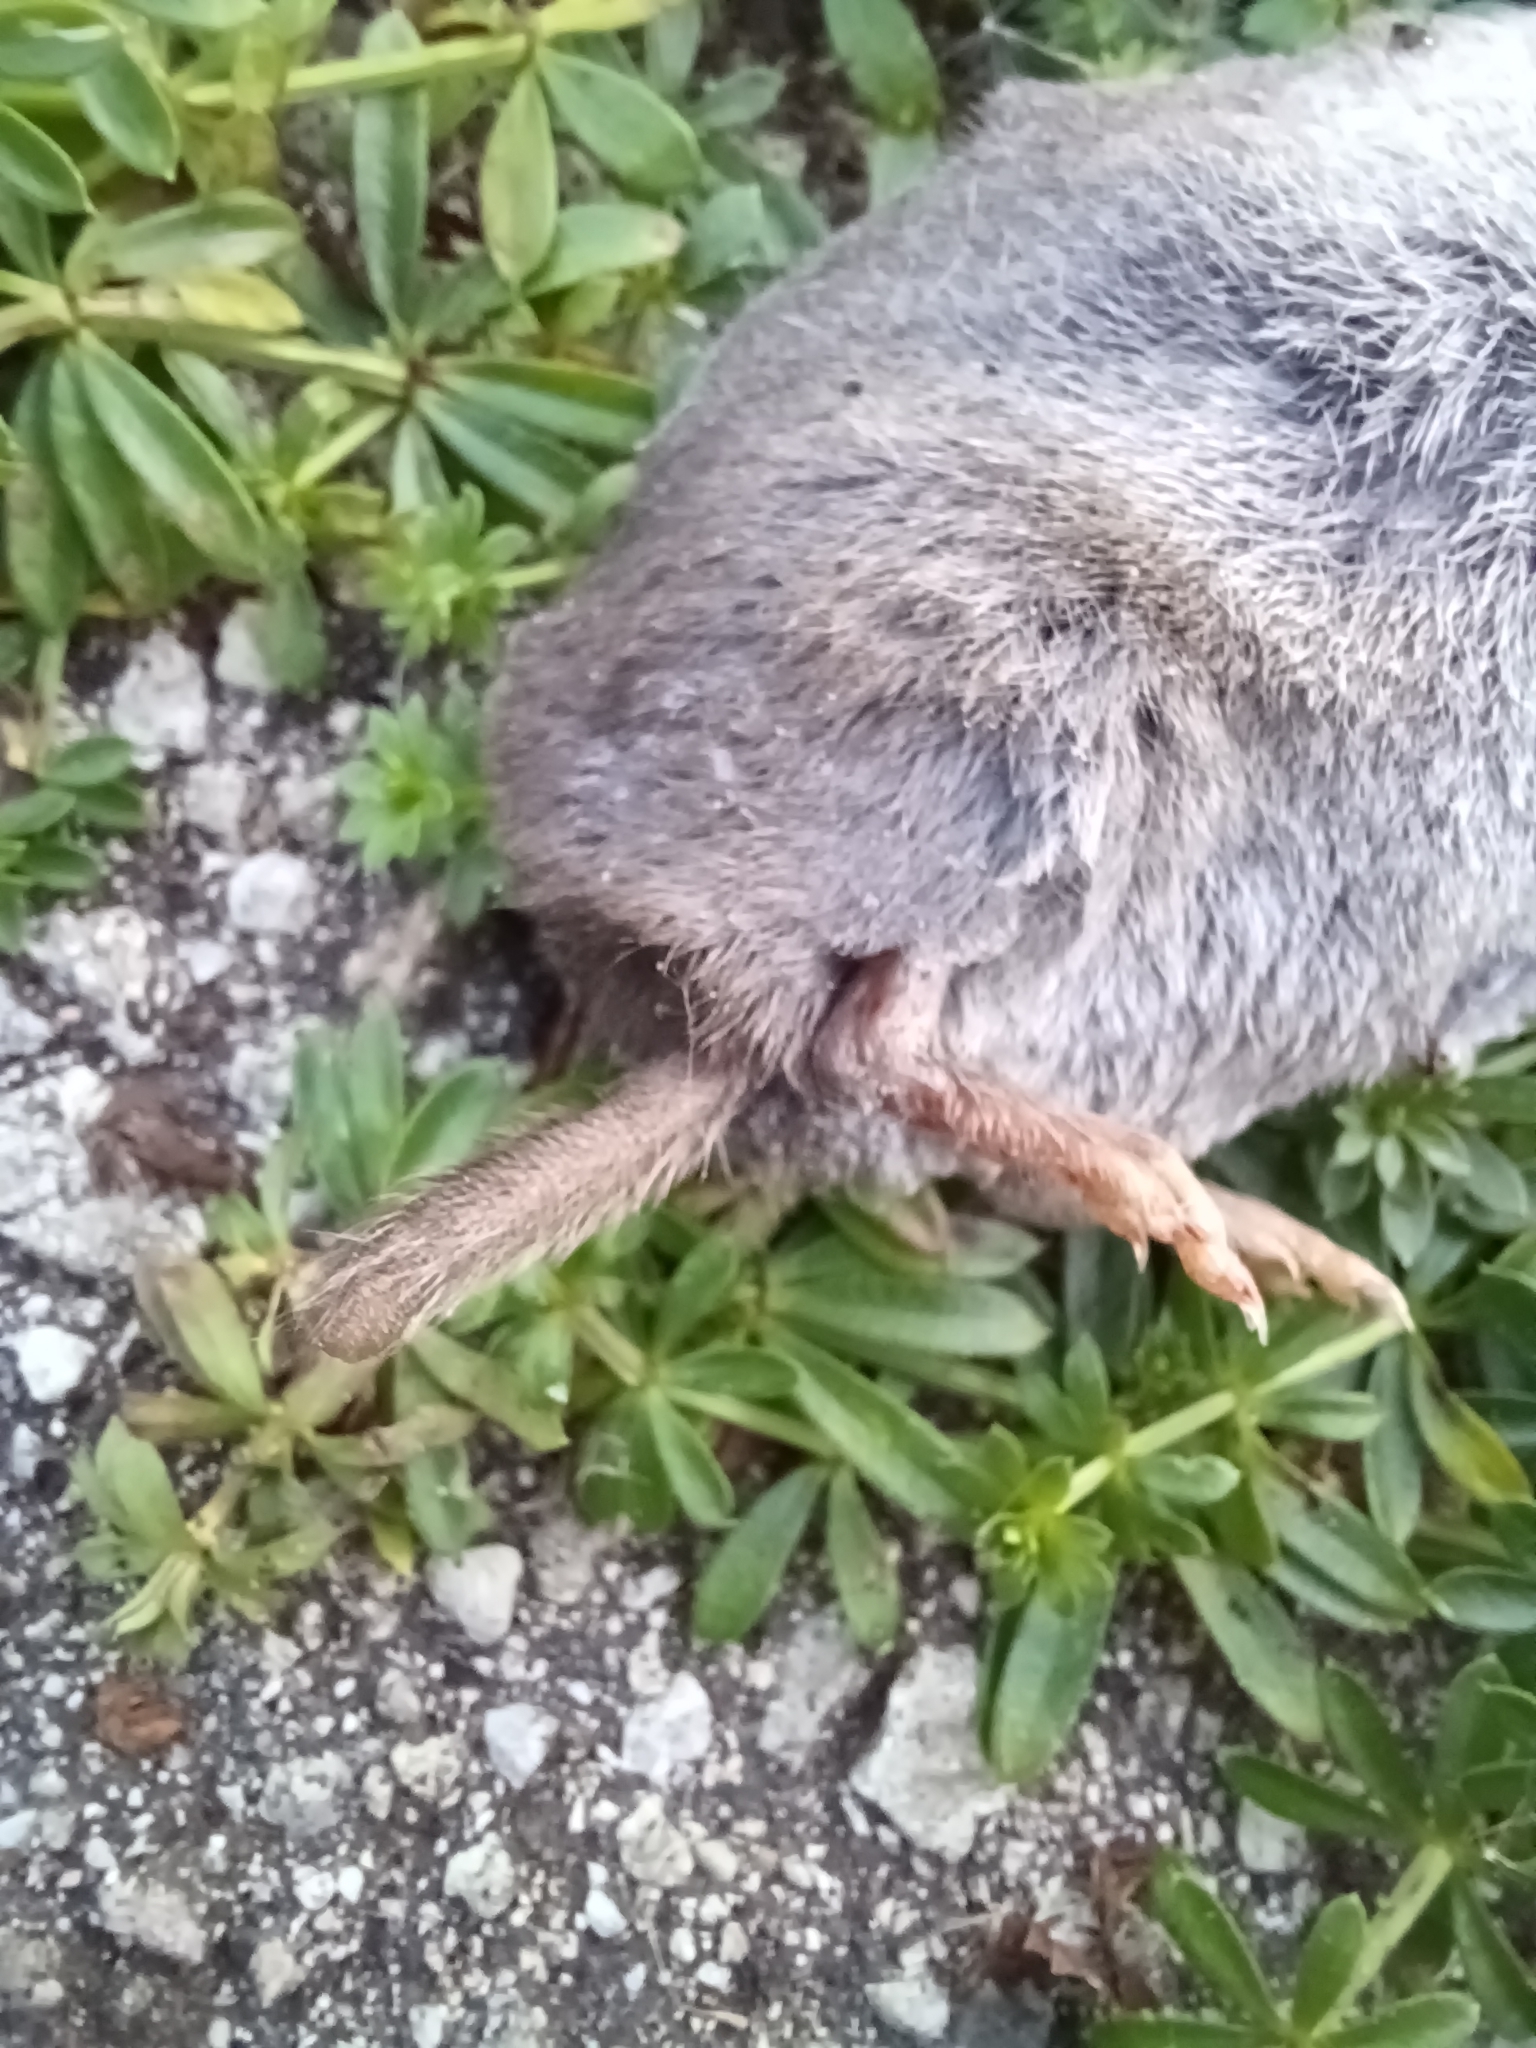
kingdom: Animalia
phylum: Chordata
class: Mammalia
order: Soricomorpha
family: Soricidae
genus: Blarina
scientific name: Blarina brevicauda
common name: Northern short-tailed shrew
